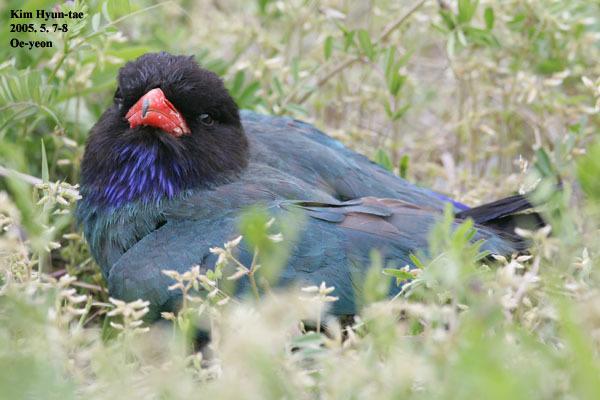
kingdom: Animalia
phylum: Chordata
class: Aves
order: Coraciiformes
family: Coraciidae
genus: Eurystomus
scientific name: Eurystomus orientalis
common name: Oriental dollarbird
